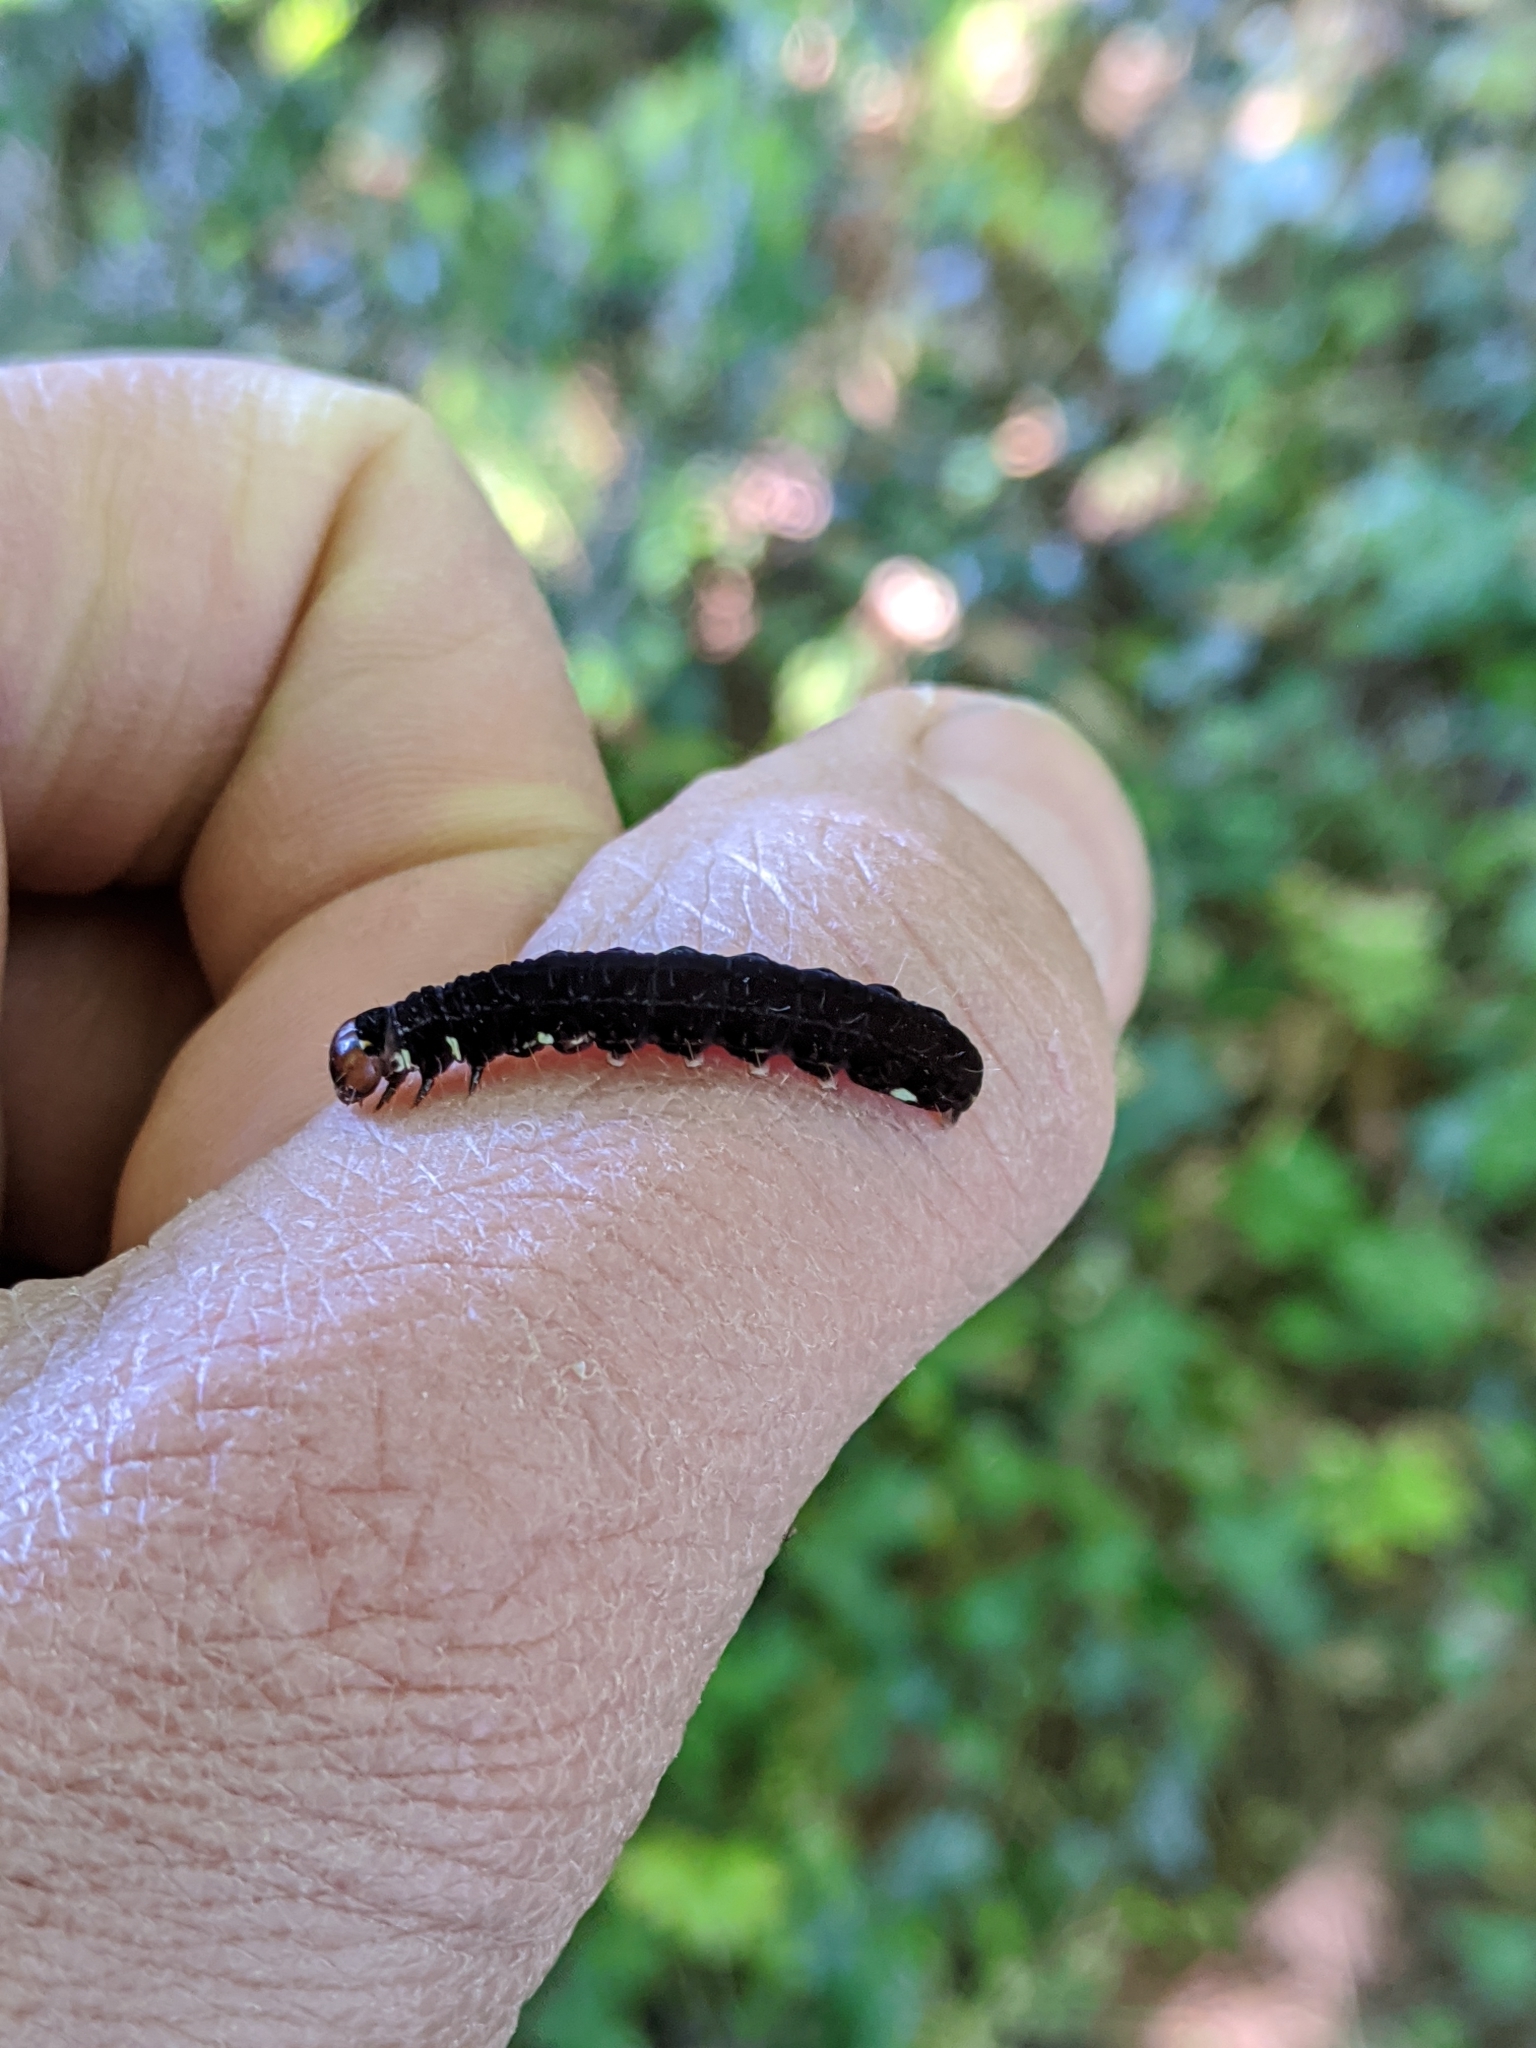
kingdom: Animalia
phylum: Arthropoda
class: Insecta
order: Lepidoptera
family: Noctuidae
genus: Eupsilia
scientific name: Eupsilia transversa
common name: Satellite
